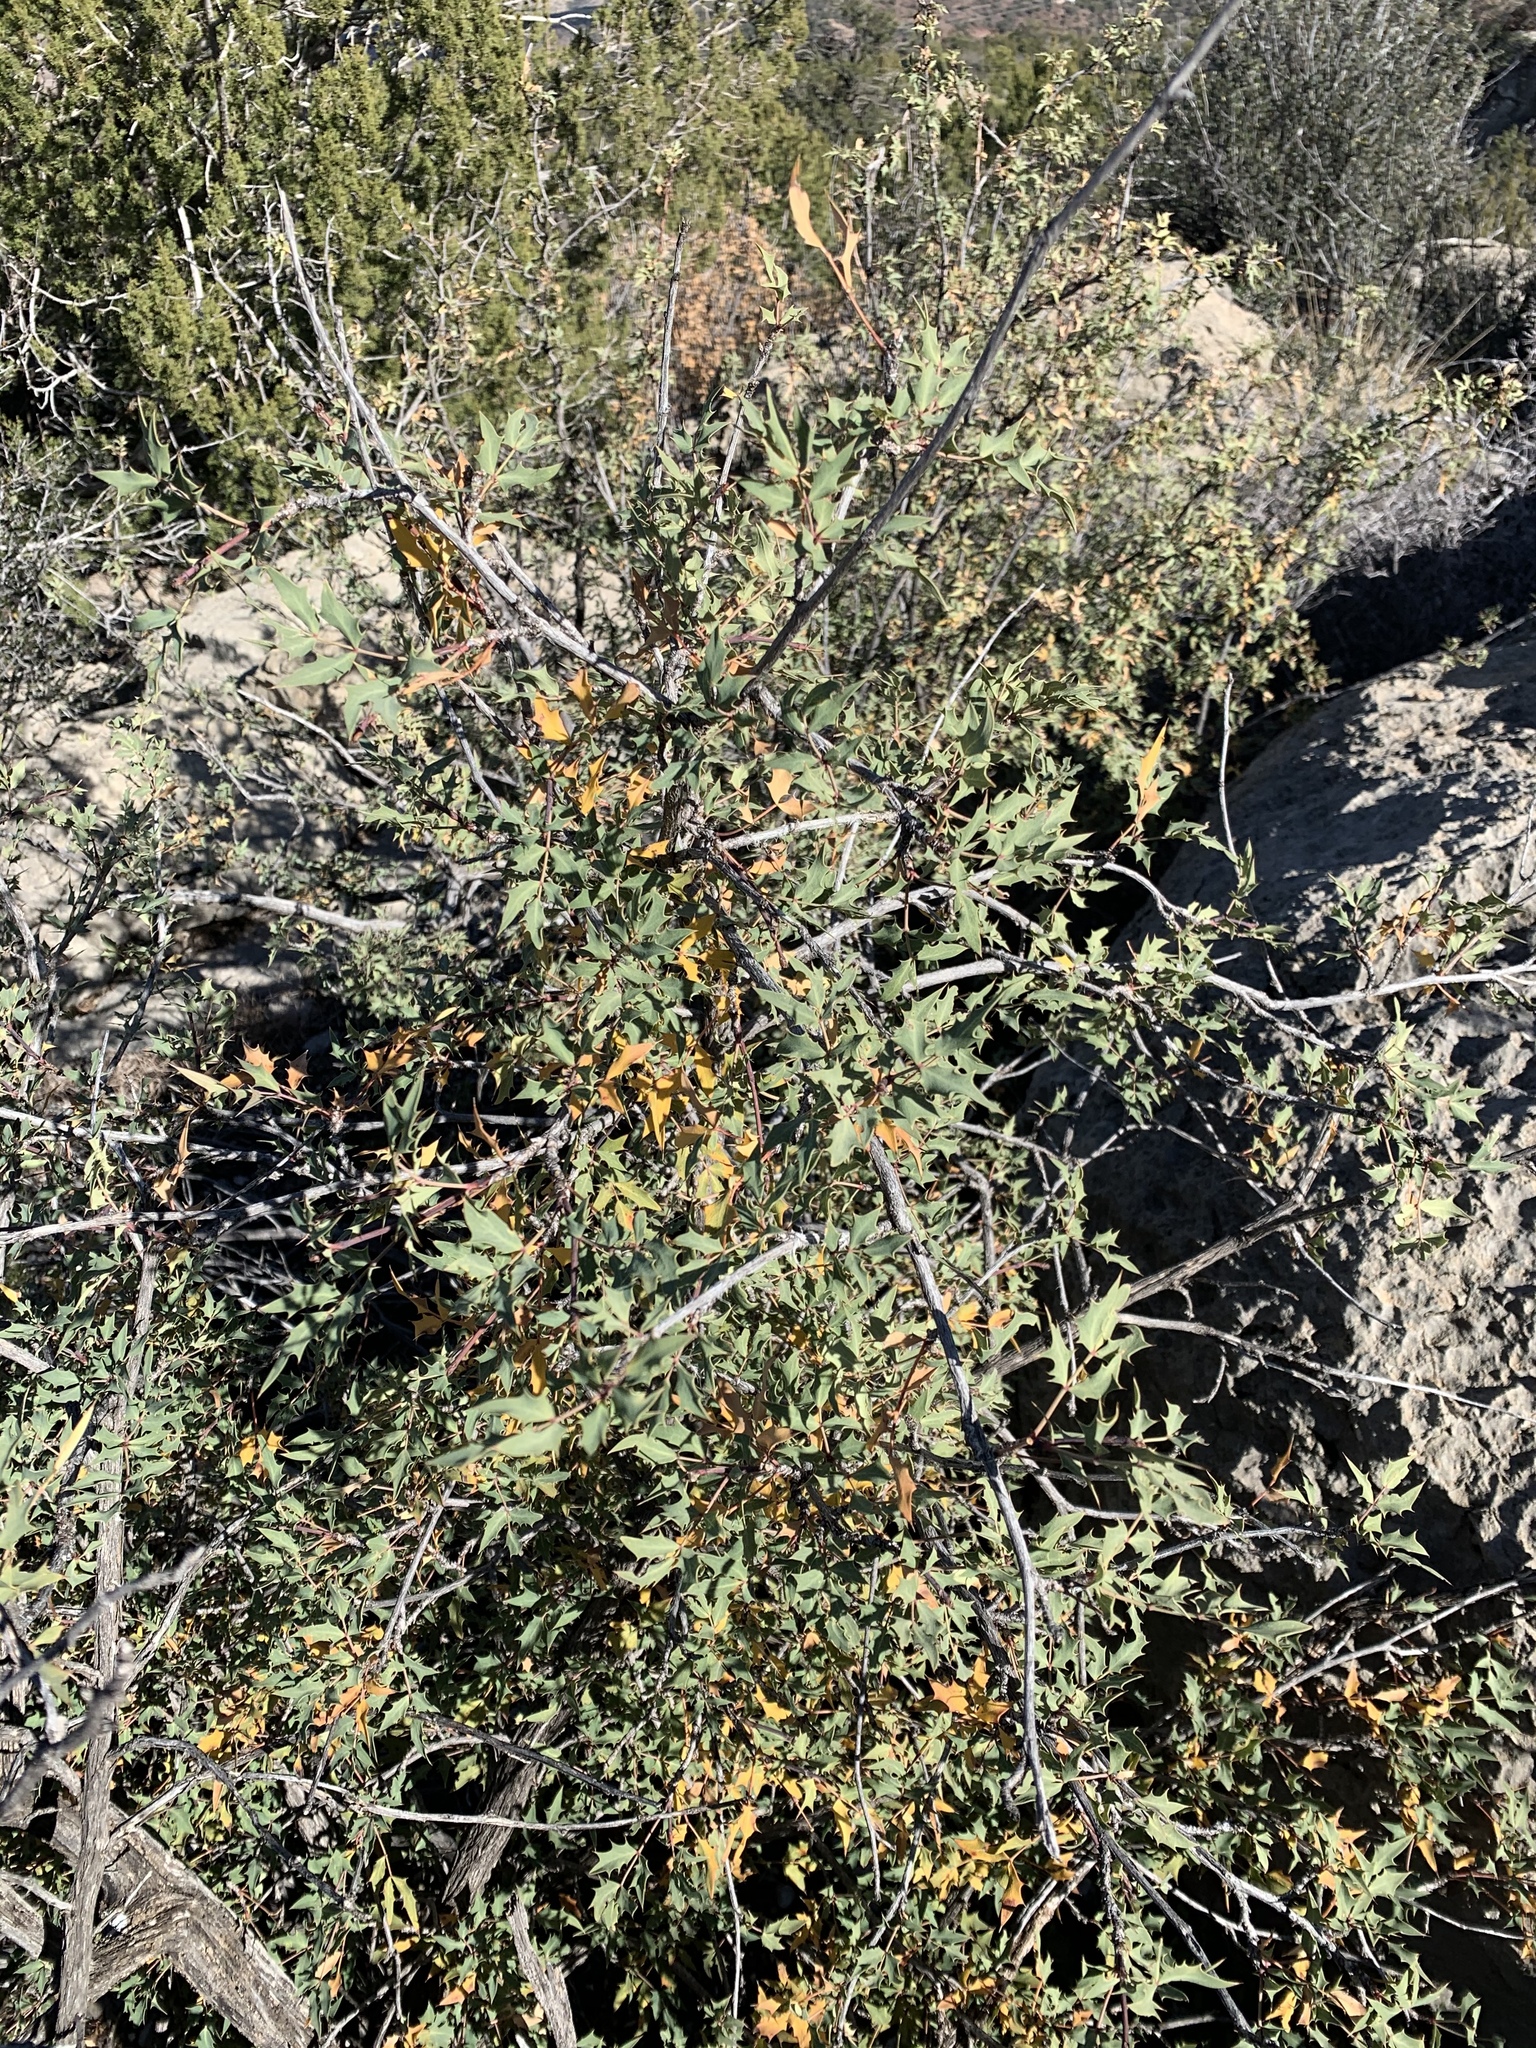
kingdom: Plantae
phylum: Tracheophyta
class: Magnoliopsida
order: Ranunculales
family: Berberidaceae
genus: Alloberberis
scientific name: Alloberberis haematocarpa
